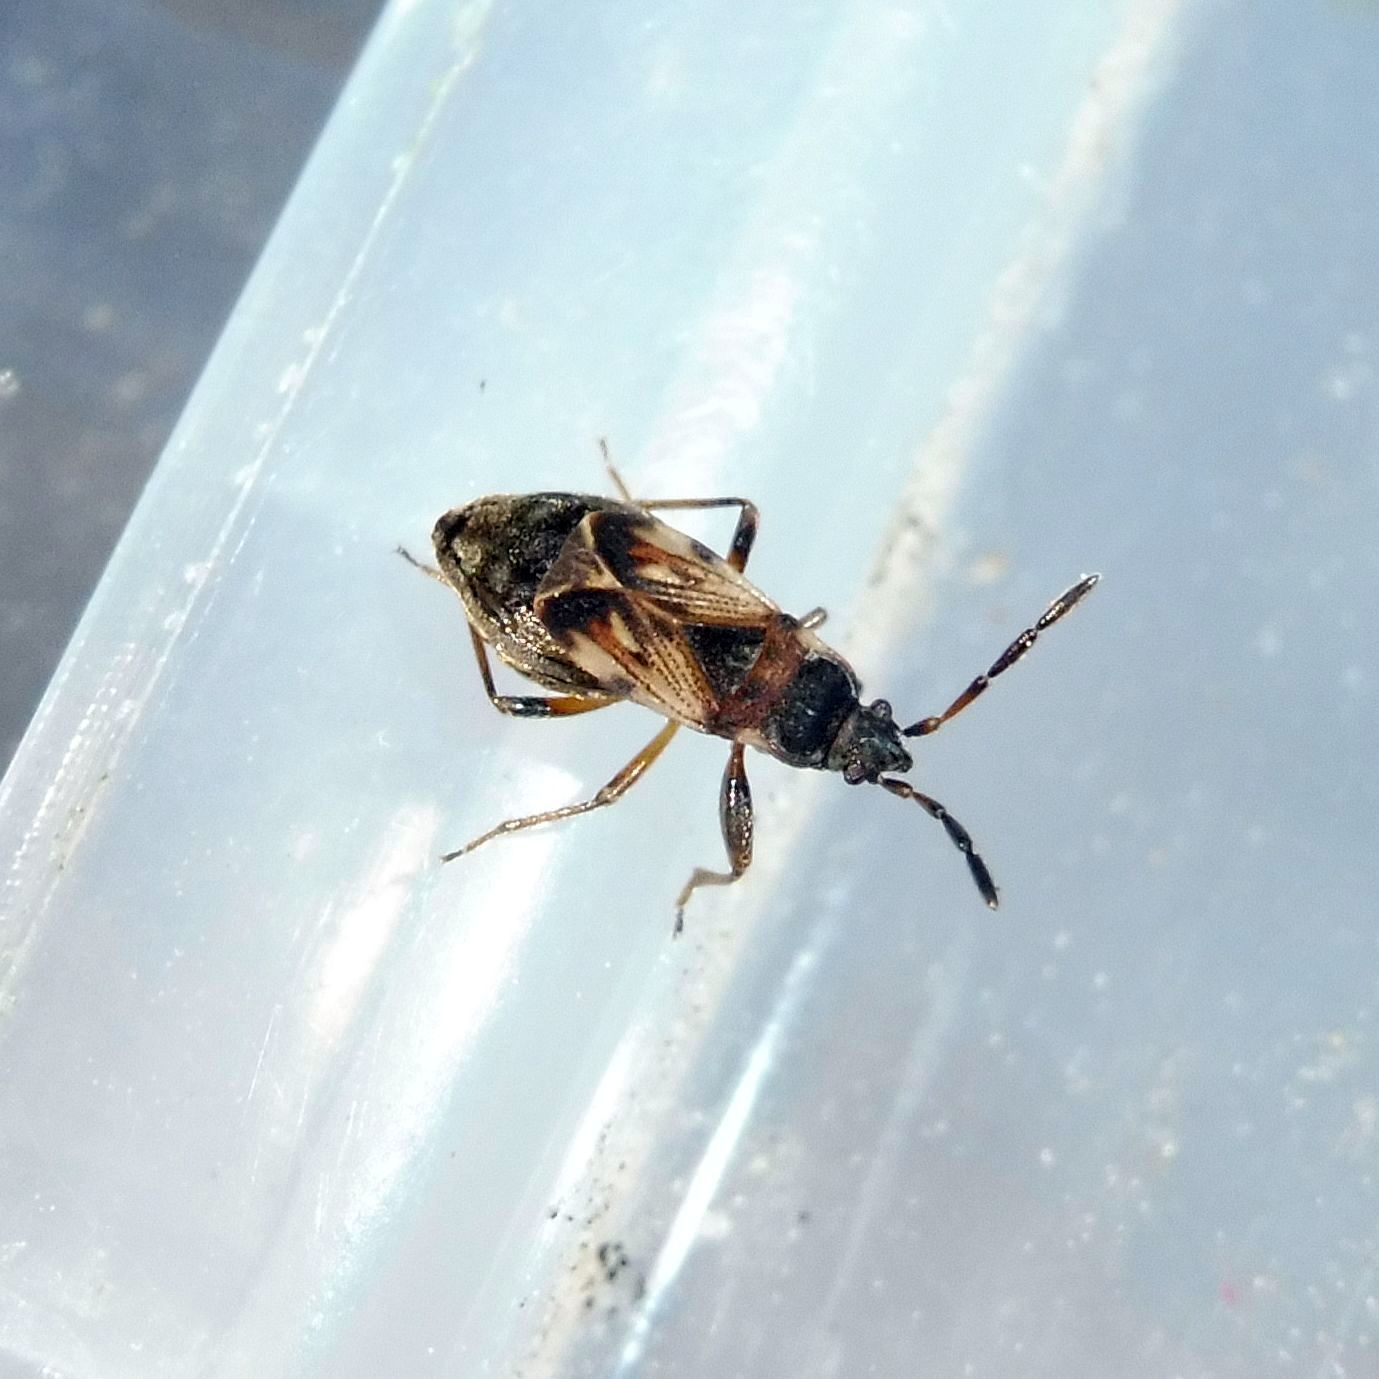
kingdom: Animalia
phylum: Arthropoda
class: Insecta
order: Hemiptera
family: Rhyparochromidae
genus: Scolopostethus
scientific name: Scolopostethus thomsoni
